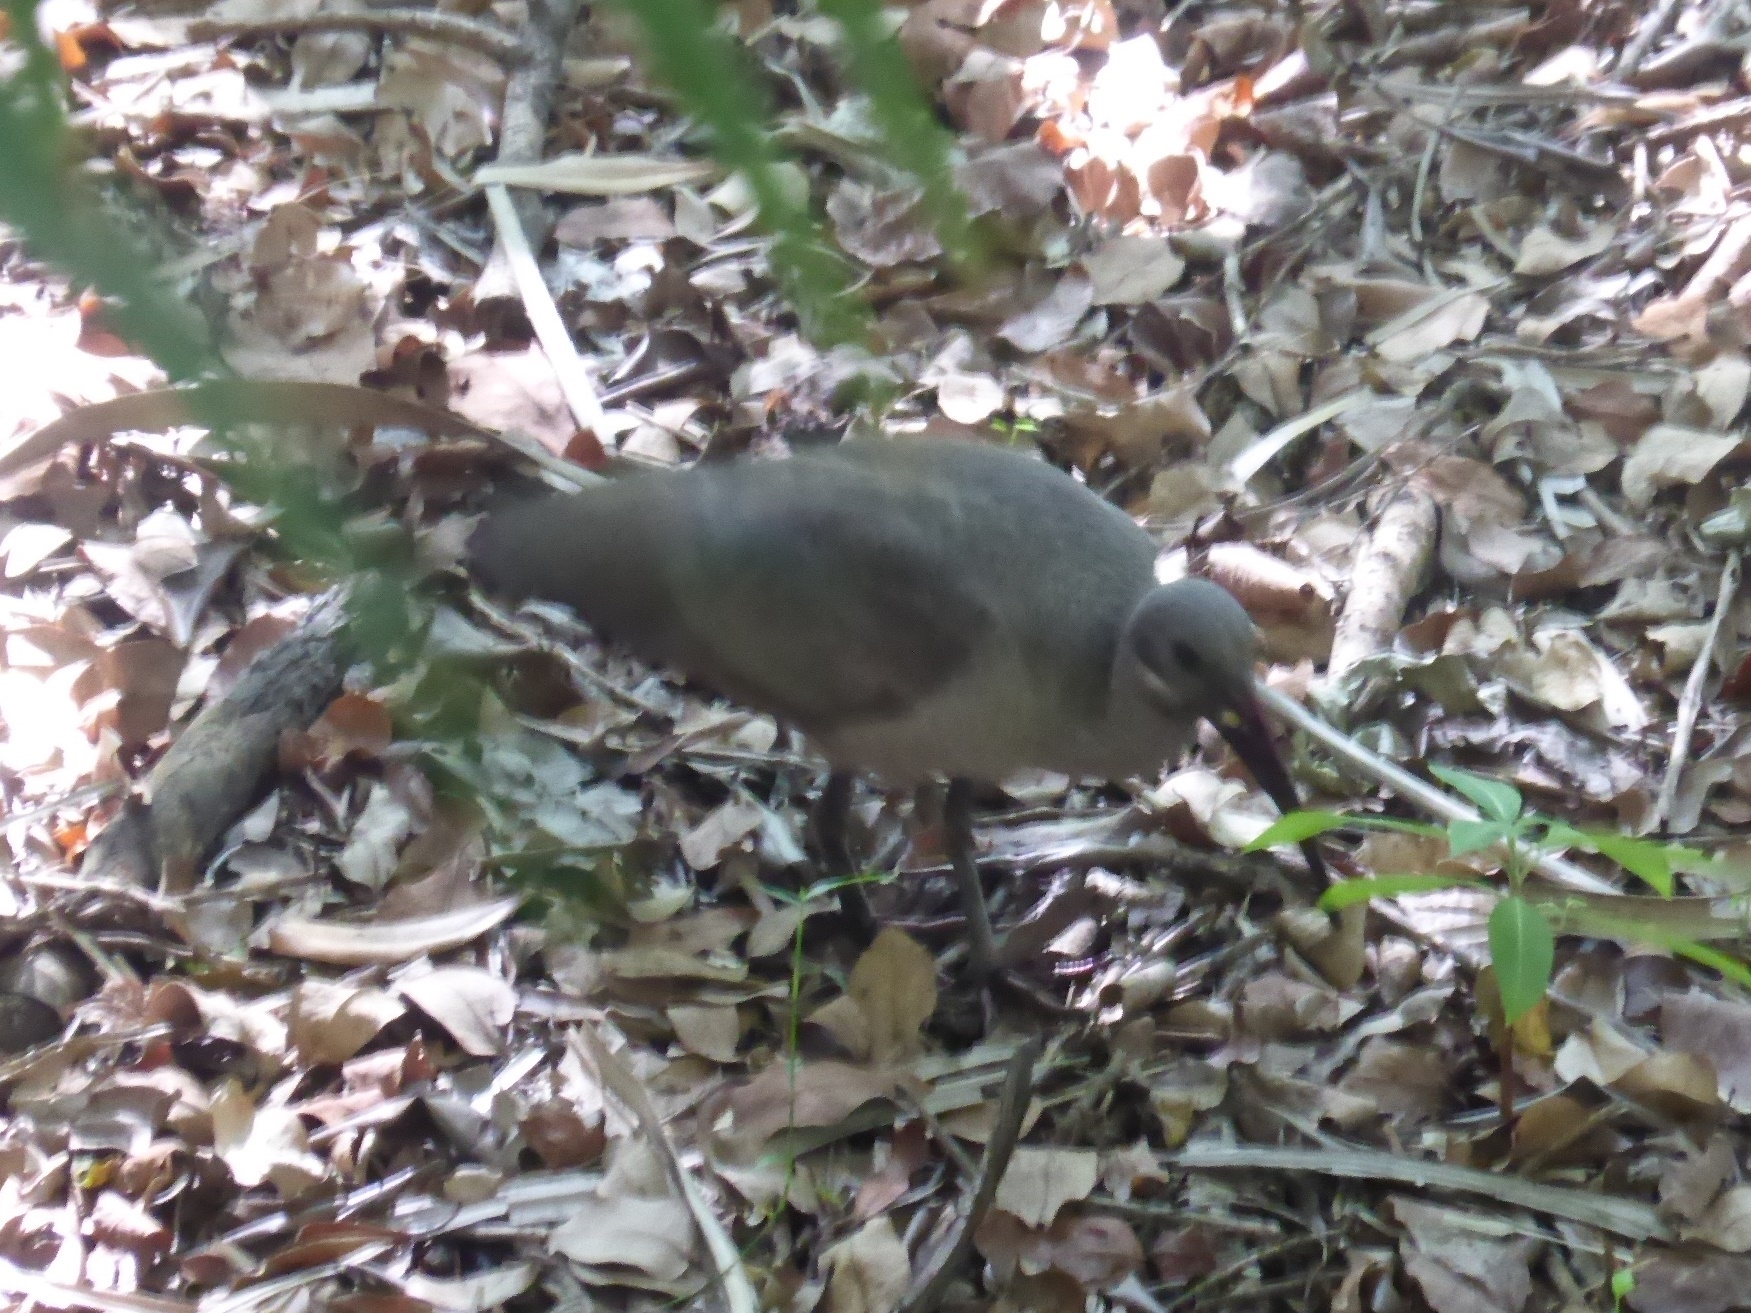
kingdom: Animalia
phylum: Chordata
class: Aves
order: Pelecaniformes
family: Threskiornithidae
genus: Bostrychia
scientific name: Bostrychia hagedash
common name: Hadada ibis
